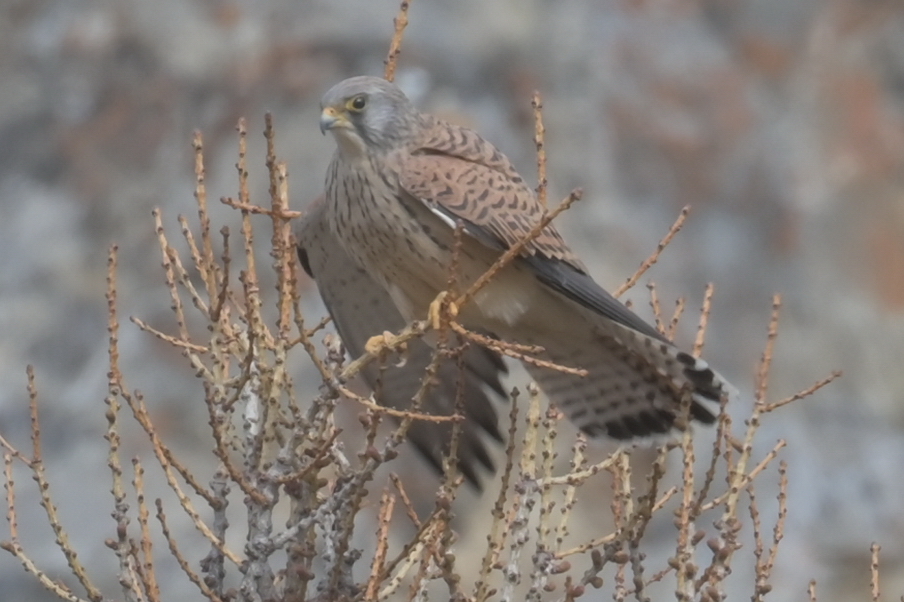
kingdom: Animalia
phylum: Chordata
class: Aves
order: Falconiformes
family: Falconidae
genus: Falco
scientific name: Falco naumanni
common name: Lesser kestrel
